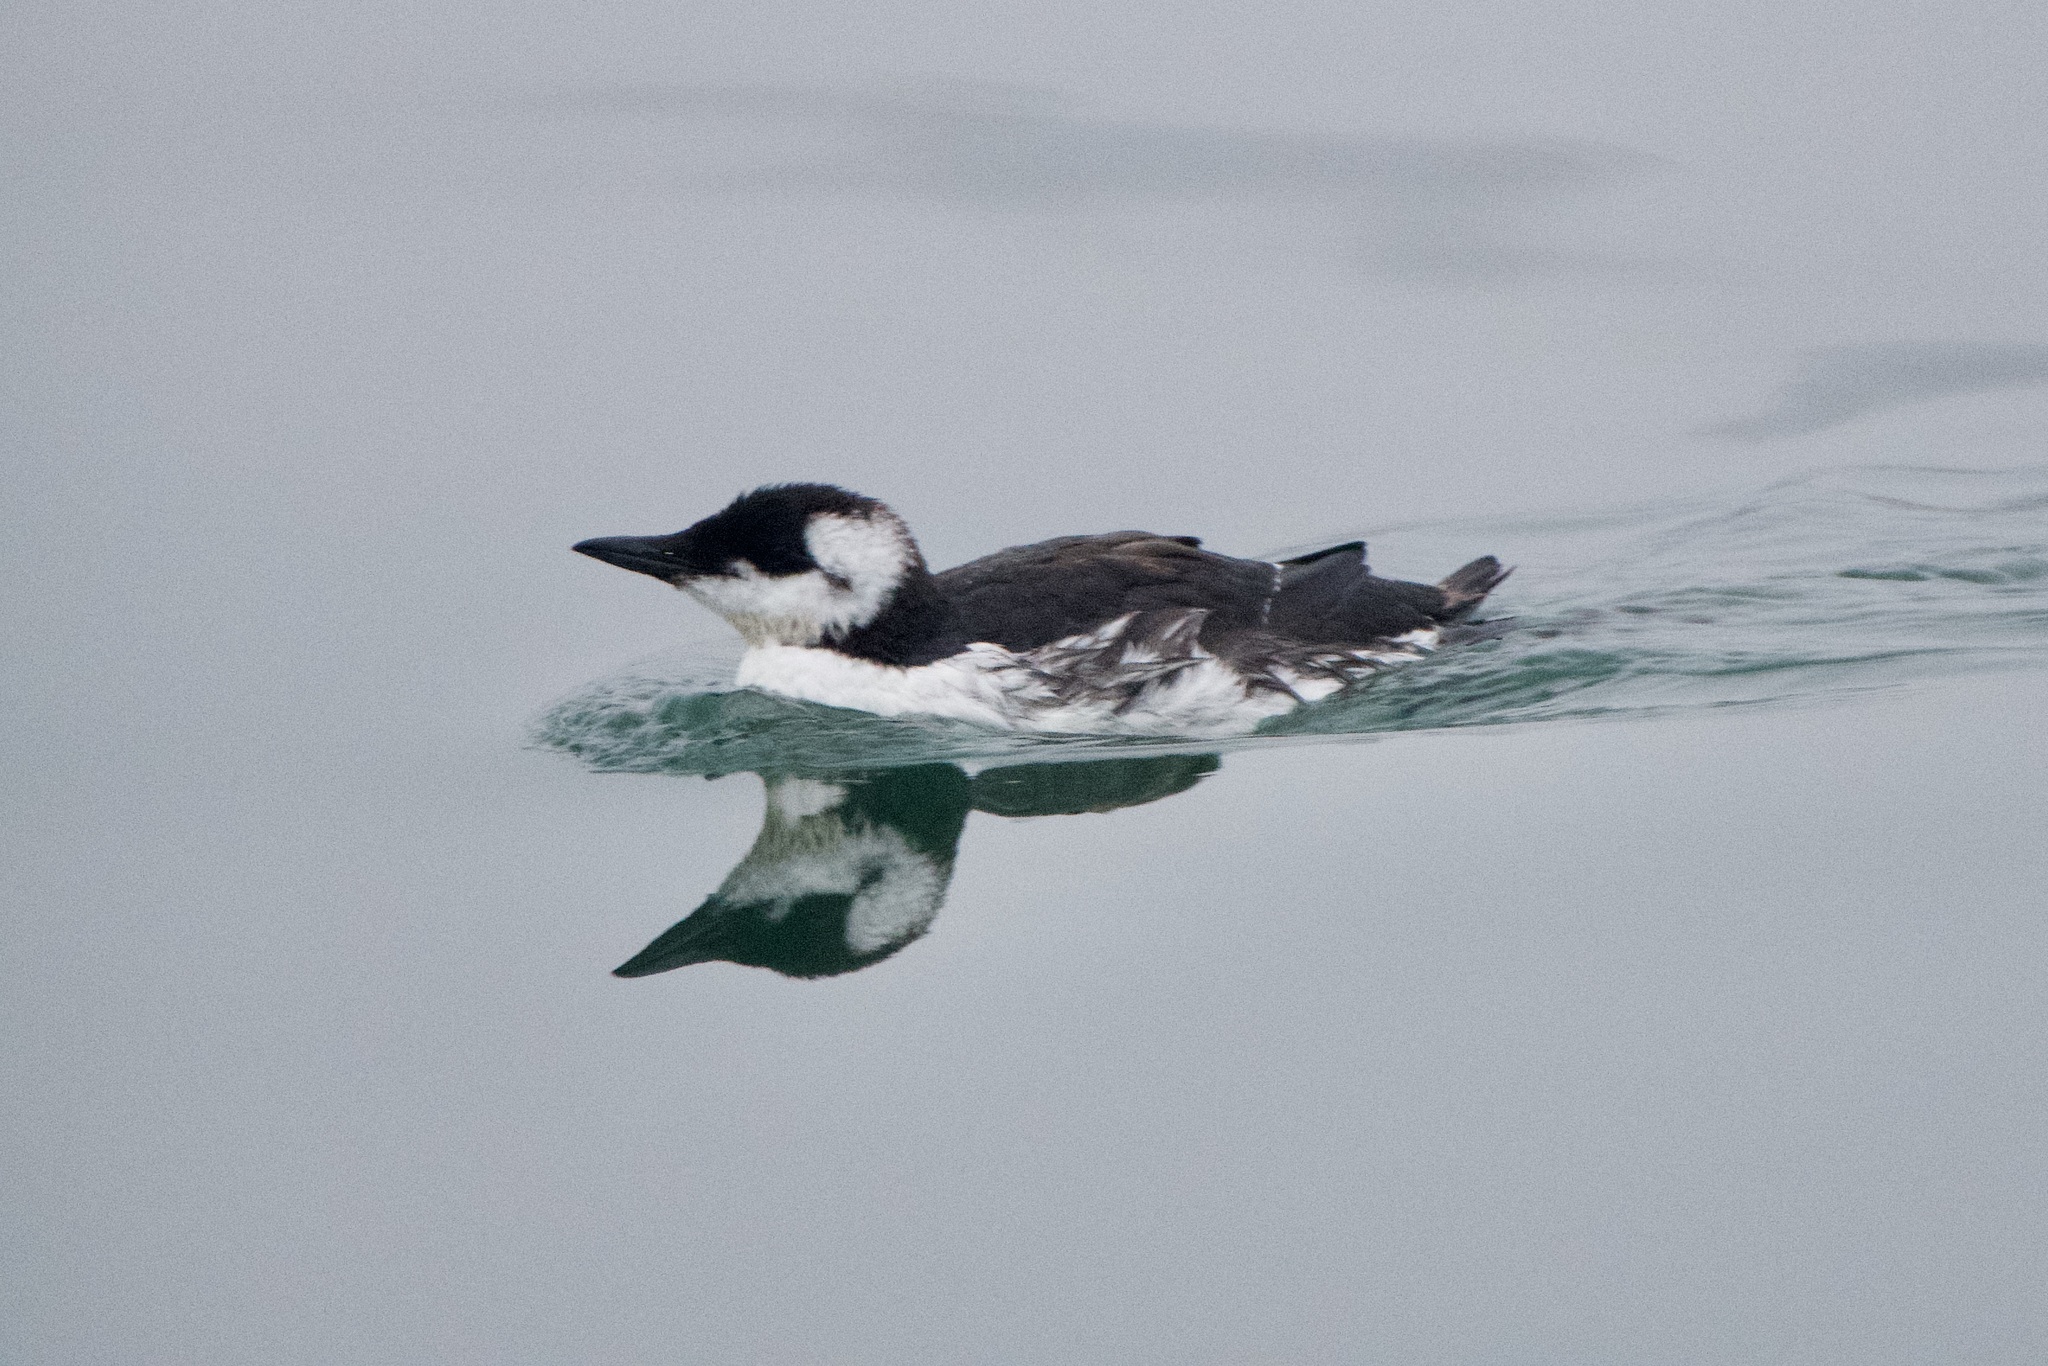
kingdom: Animalia
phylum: Chordata
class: Aves
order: Charadriiformes
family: Alcidae
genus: Uria
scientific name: Uria aalge
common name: Common murre
